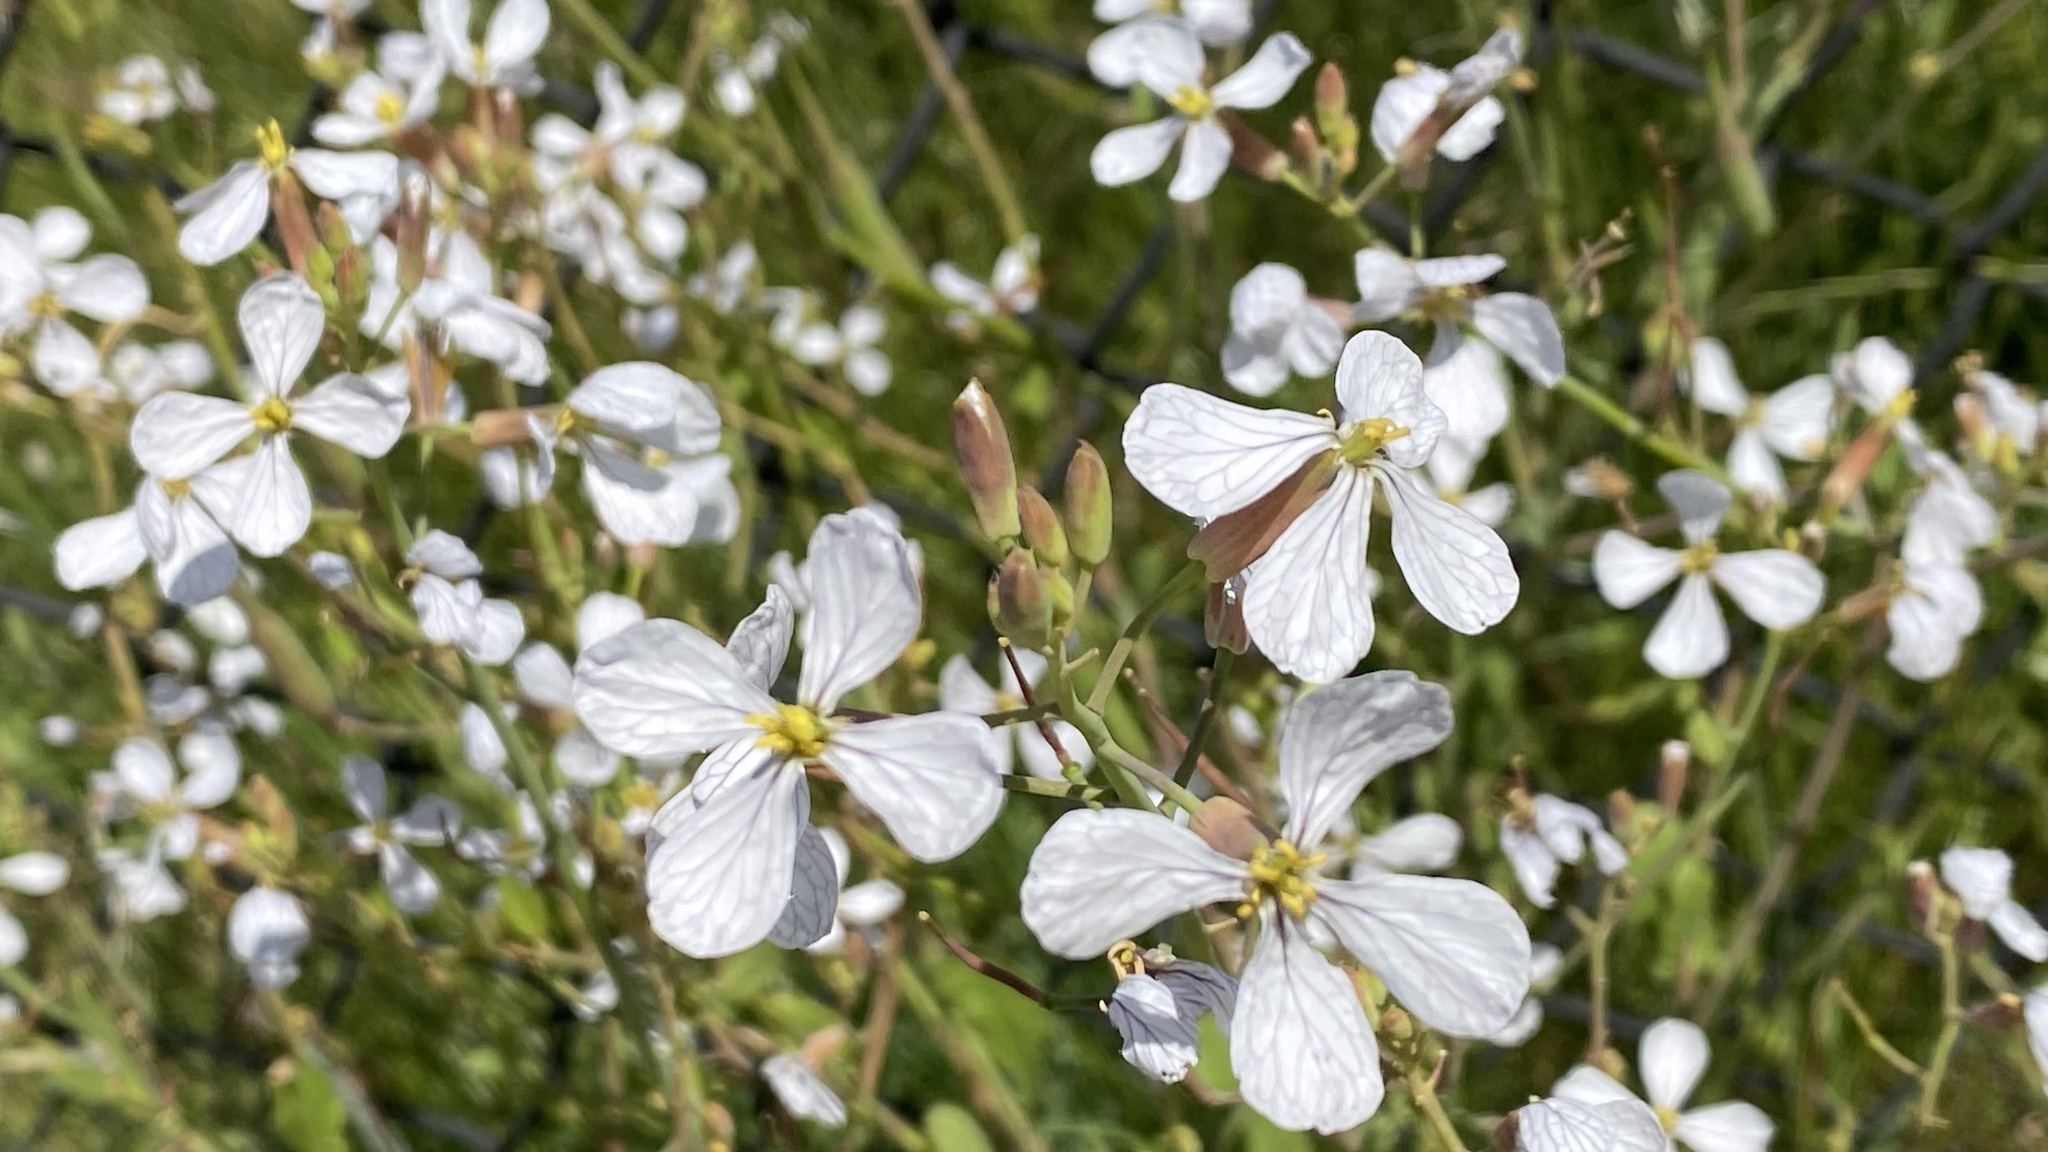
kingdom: Plantae
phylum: Tracheophyta
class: Magnoliopsida
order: Brassicales
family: Brassicaceae
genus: Raphanus
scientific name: Raphanus sativus
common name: Cultivated radish
